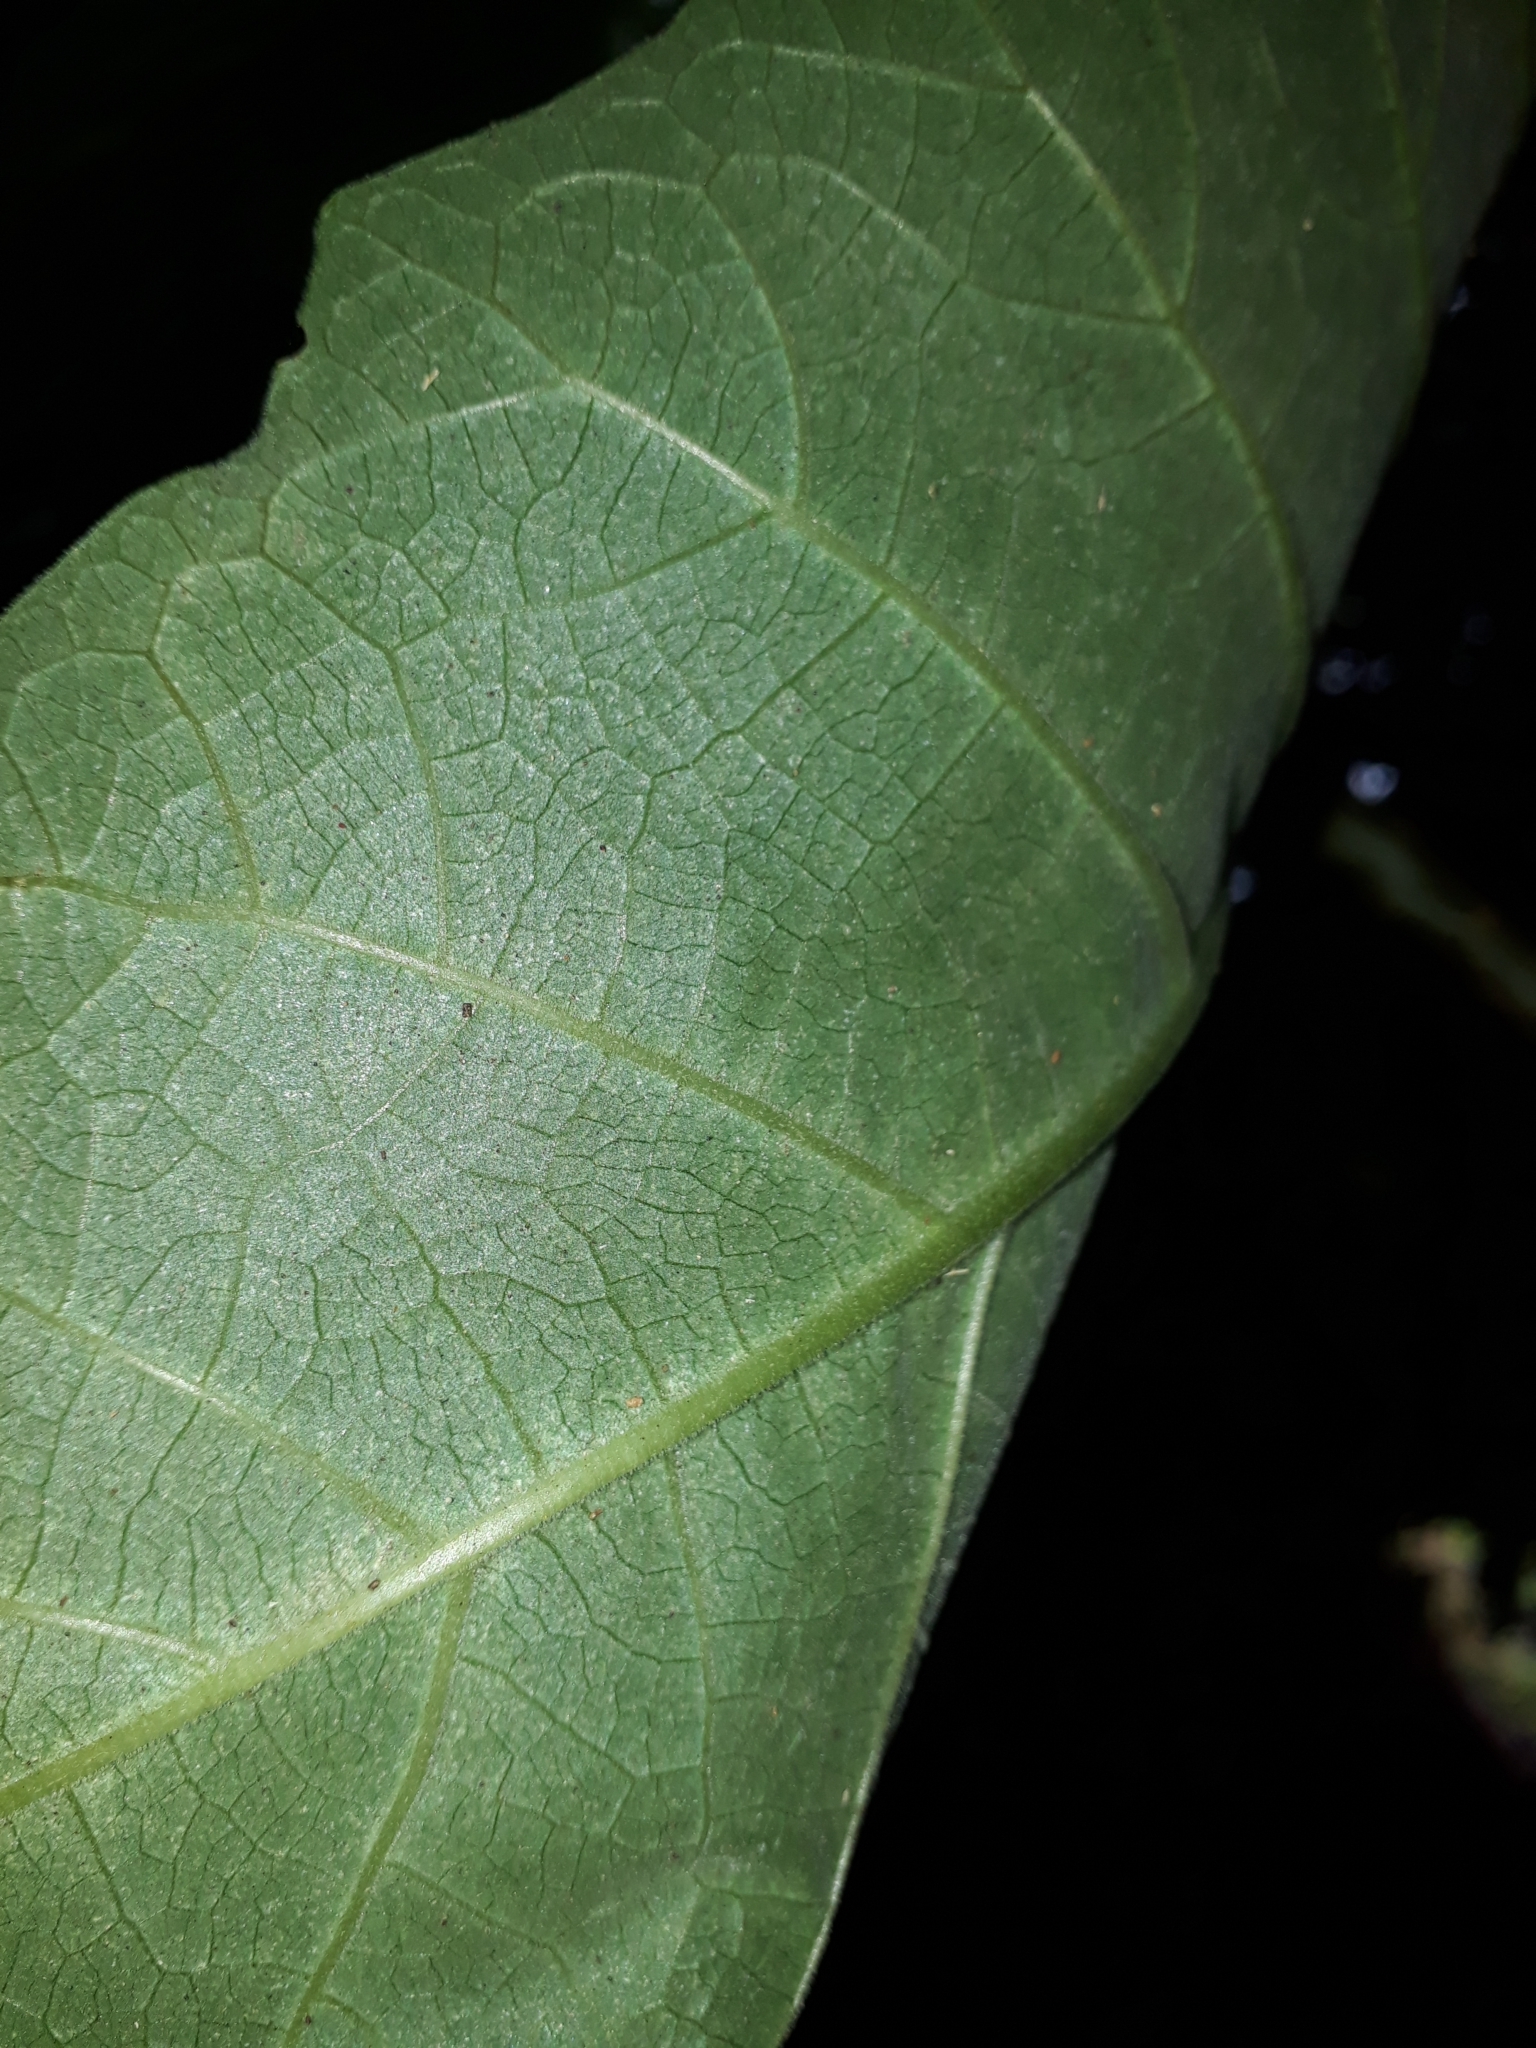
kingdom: Plantae
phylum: Tracheophyta
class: Magnoliopsida
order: Solanales
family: Solanaceae
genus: Brugmansia
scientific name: Brugmansia candida
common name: Angel's-trumpet
